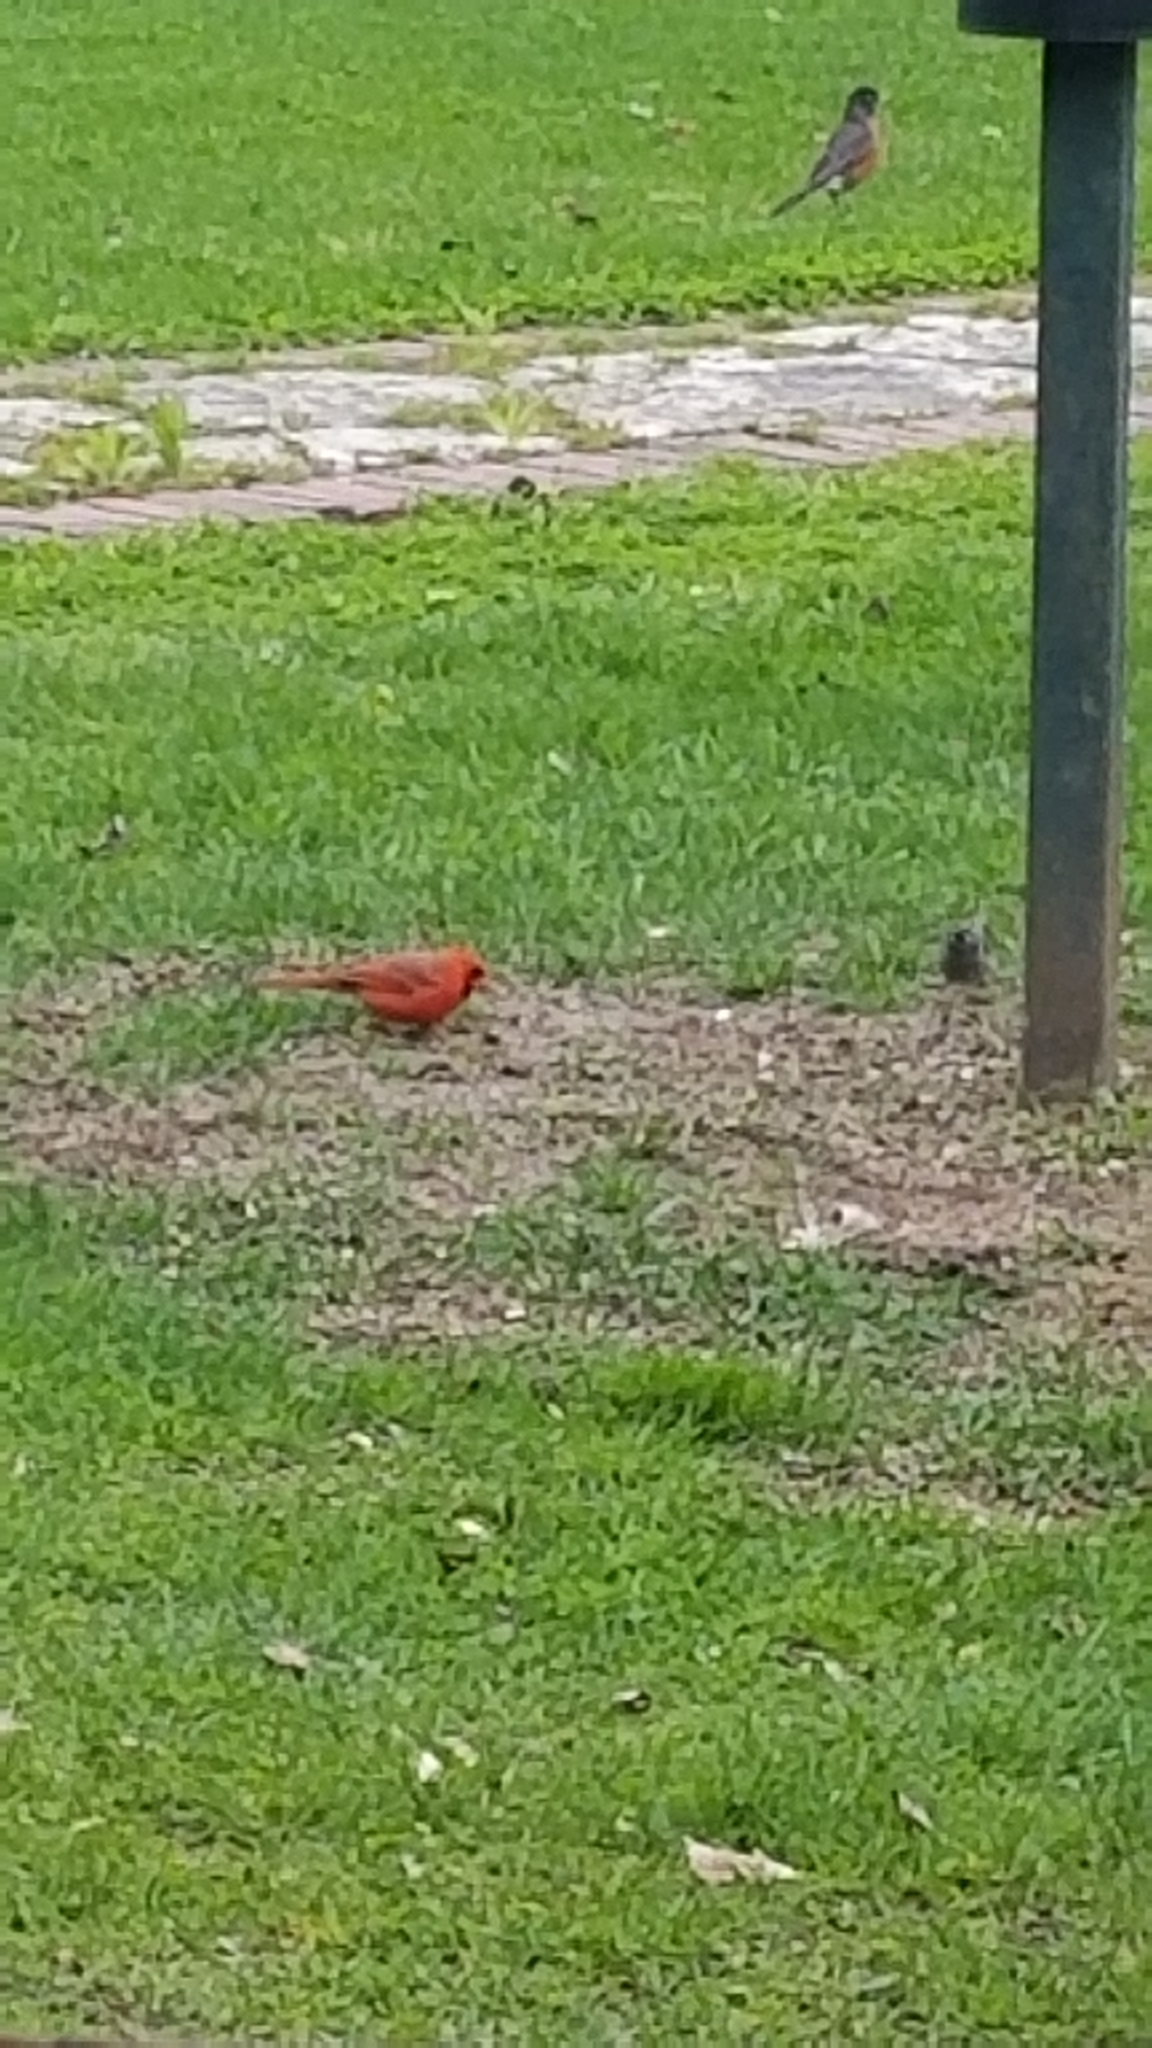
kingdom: Animalia
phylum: Chordata
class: Aves
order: Passeriformes
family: Cardinalidae
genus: Cardinalis
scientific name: Cardinalis cardinalis
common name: Northern cardinal
